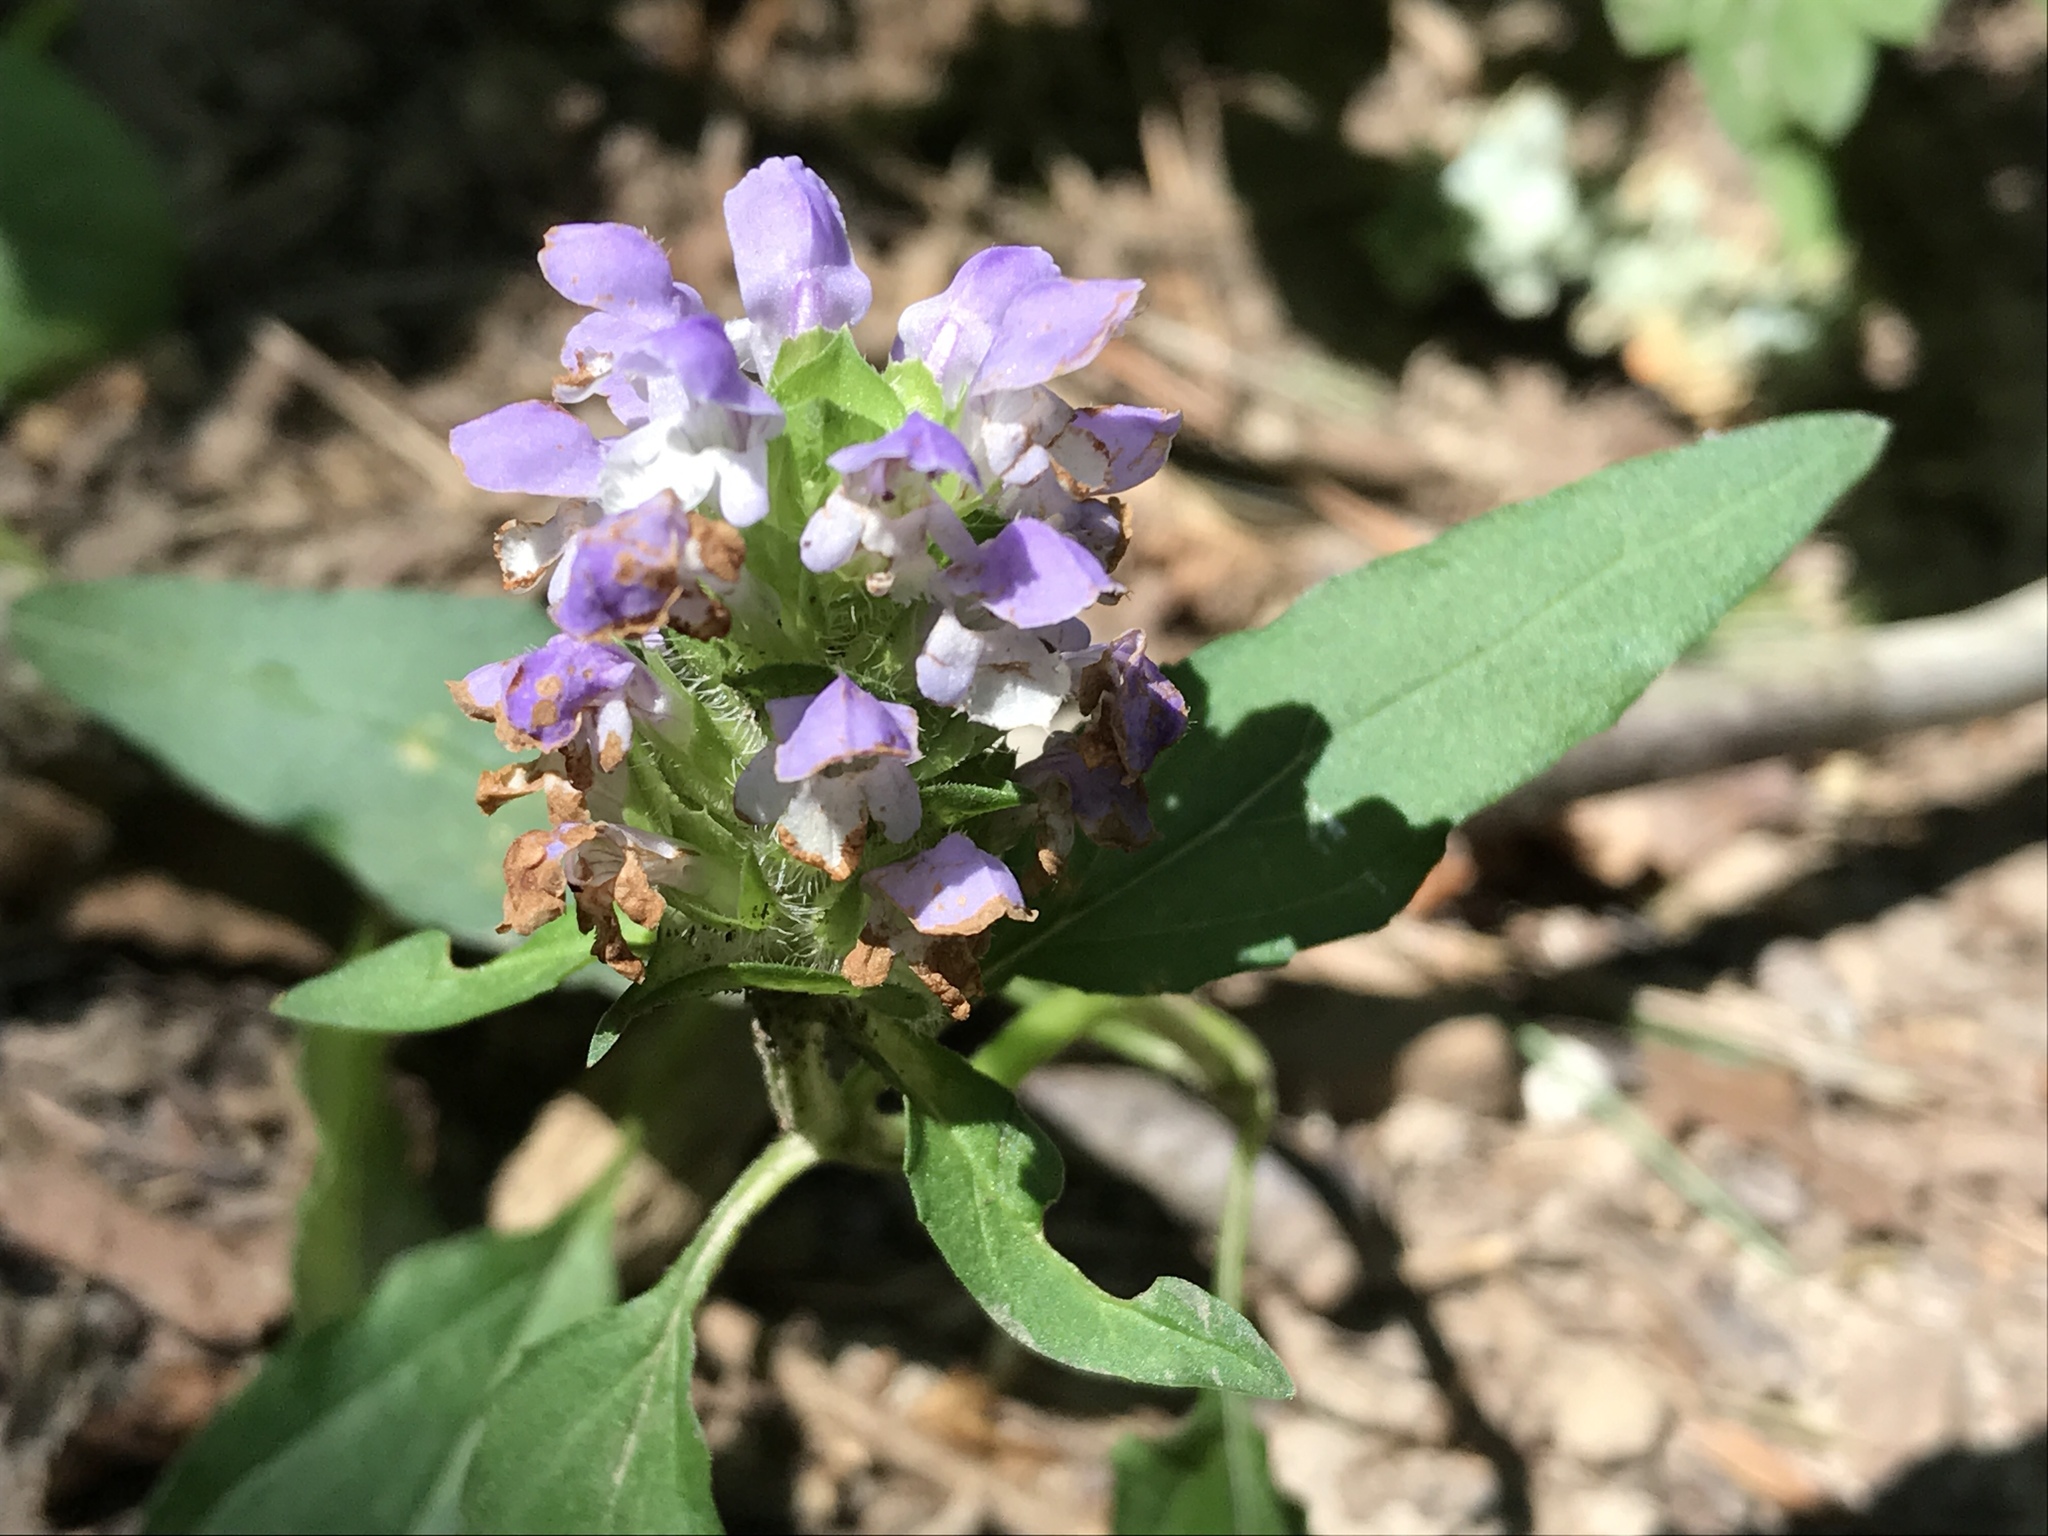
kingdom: Plantae
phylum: Tracheophyta
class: Magnoliopsida
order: Lamiales
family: Lamiaceae
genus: Prunella
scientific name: Prunella vulgaris
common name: Heal-all
